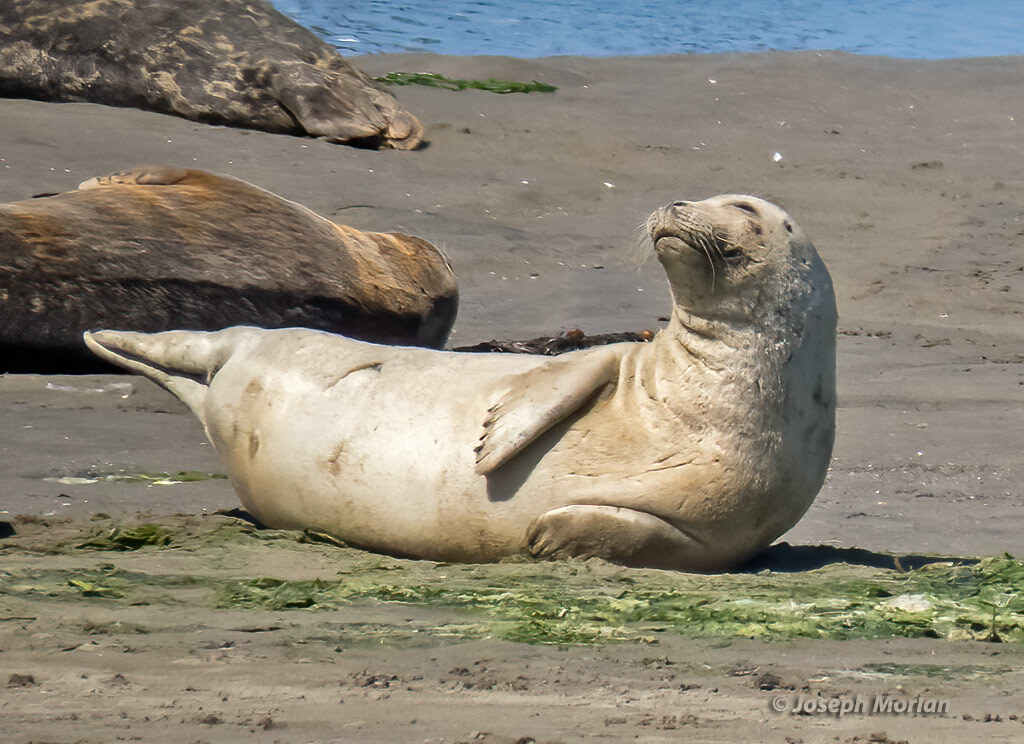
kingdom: Animalia
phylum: Chordata
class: Mammalia
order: Carnivora
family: Phocidae
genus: Phoca
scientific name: Phoca vitulina
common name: Harbor seal
